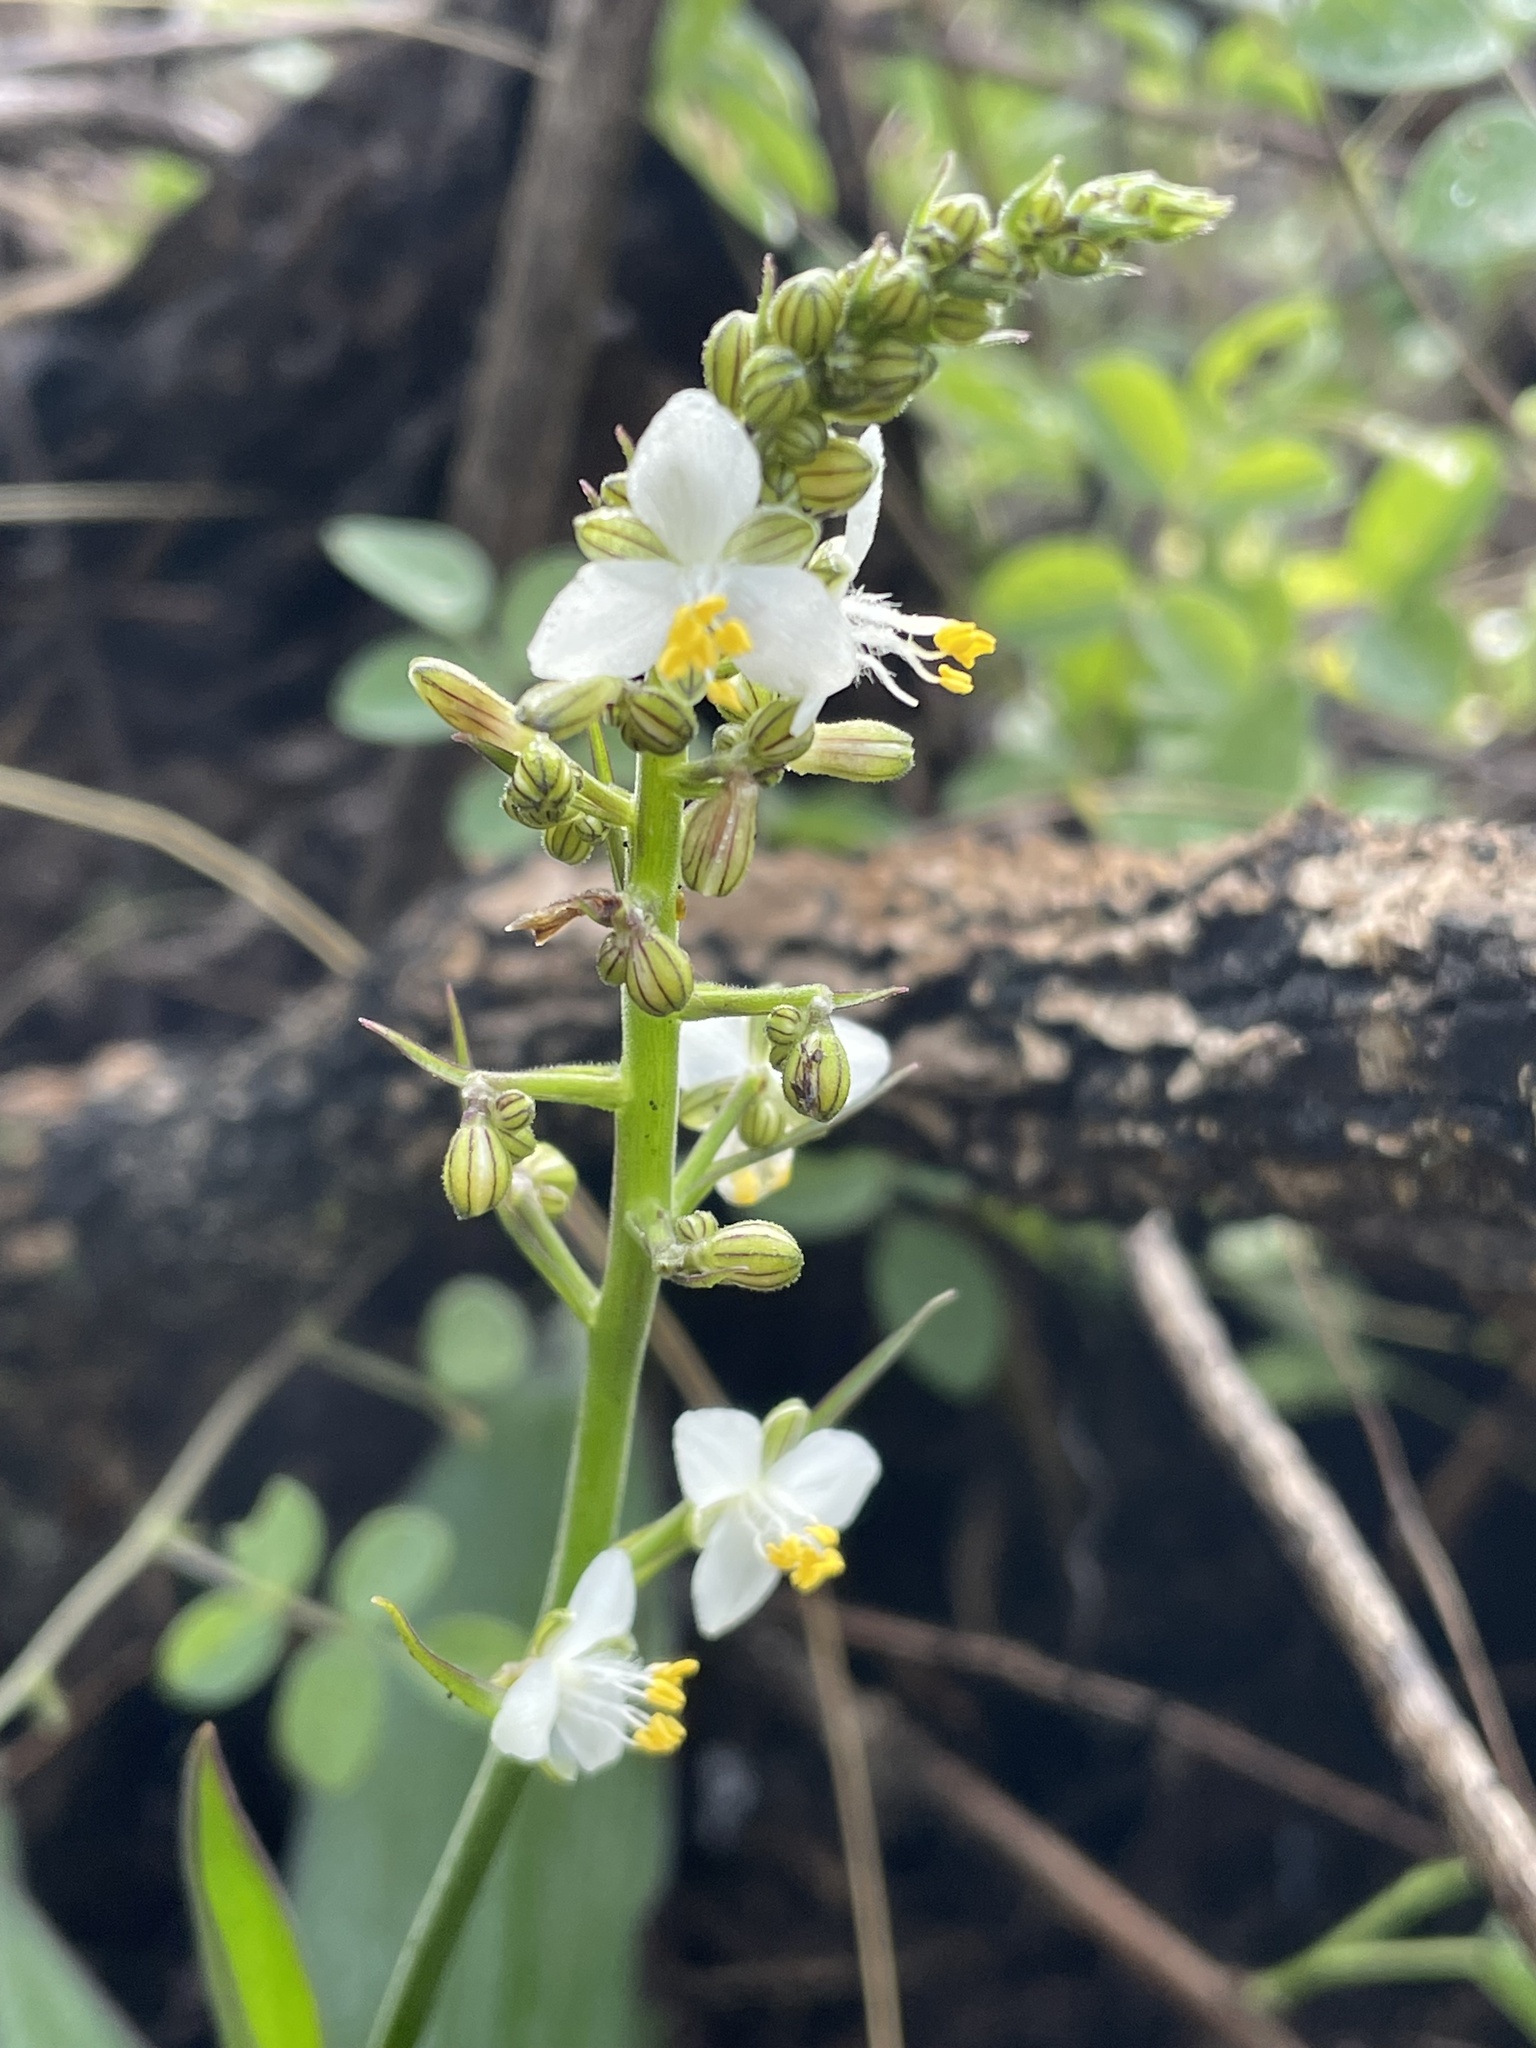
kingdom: Plantae
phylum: Tracheophyta
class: Liliopsida
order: Commelinales
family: Commelinaceae
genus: Thyrsanthemum
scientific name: Thyrsanthemum goldianum
